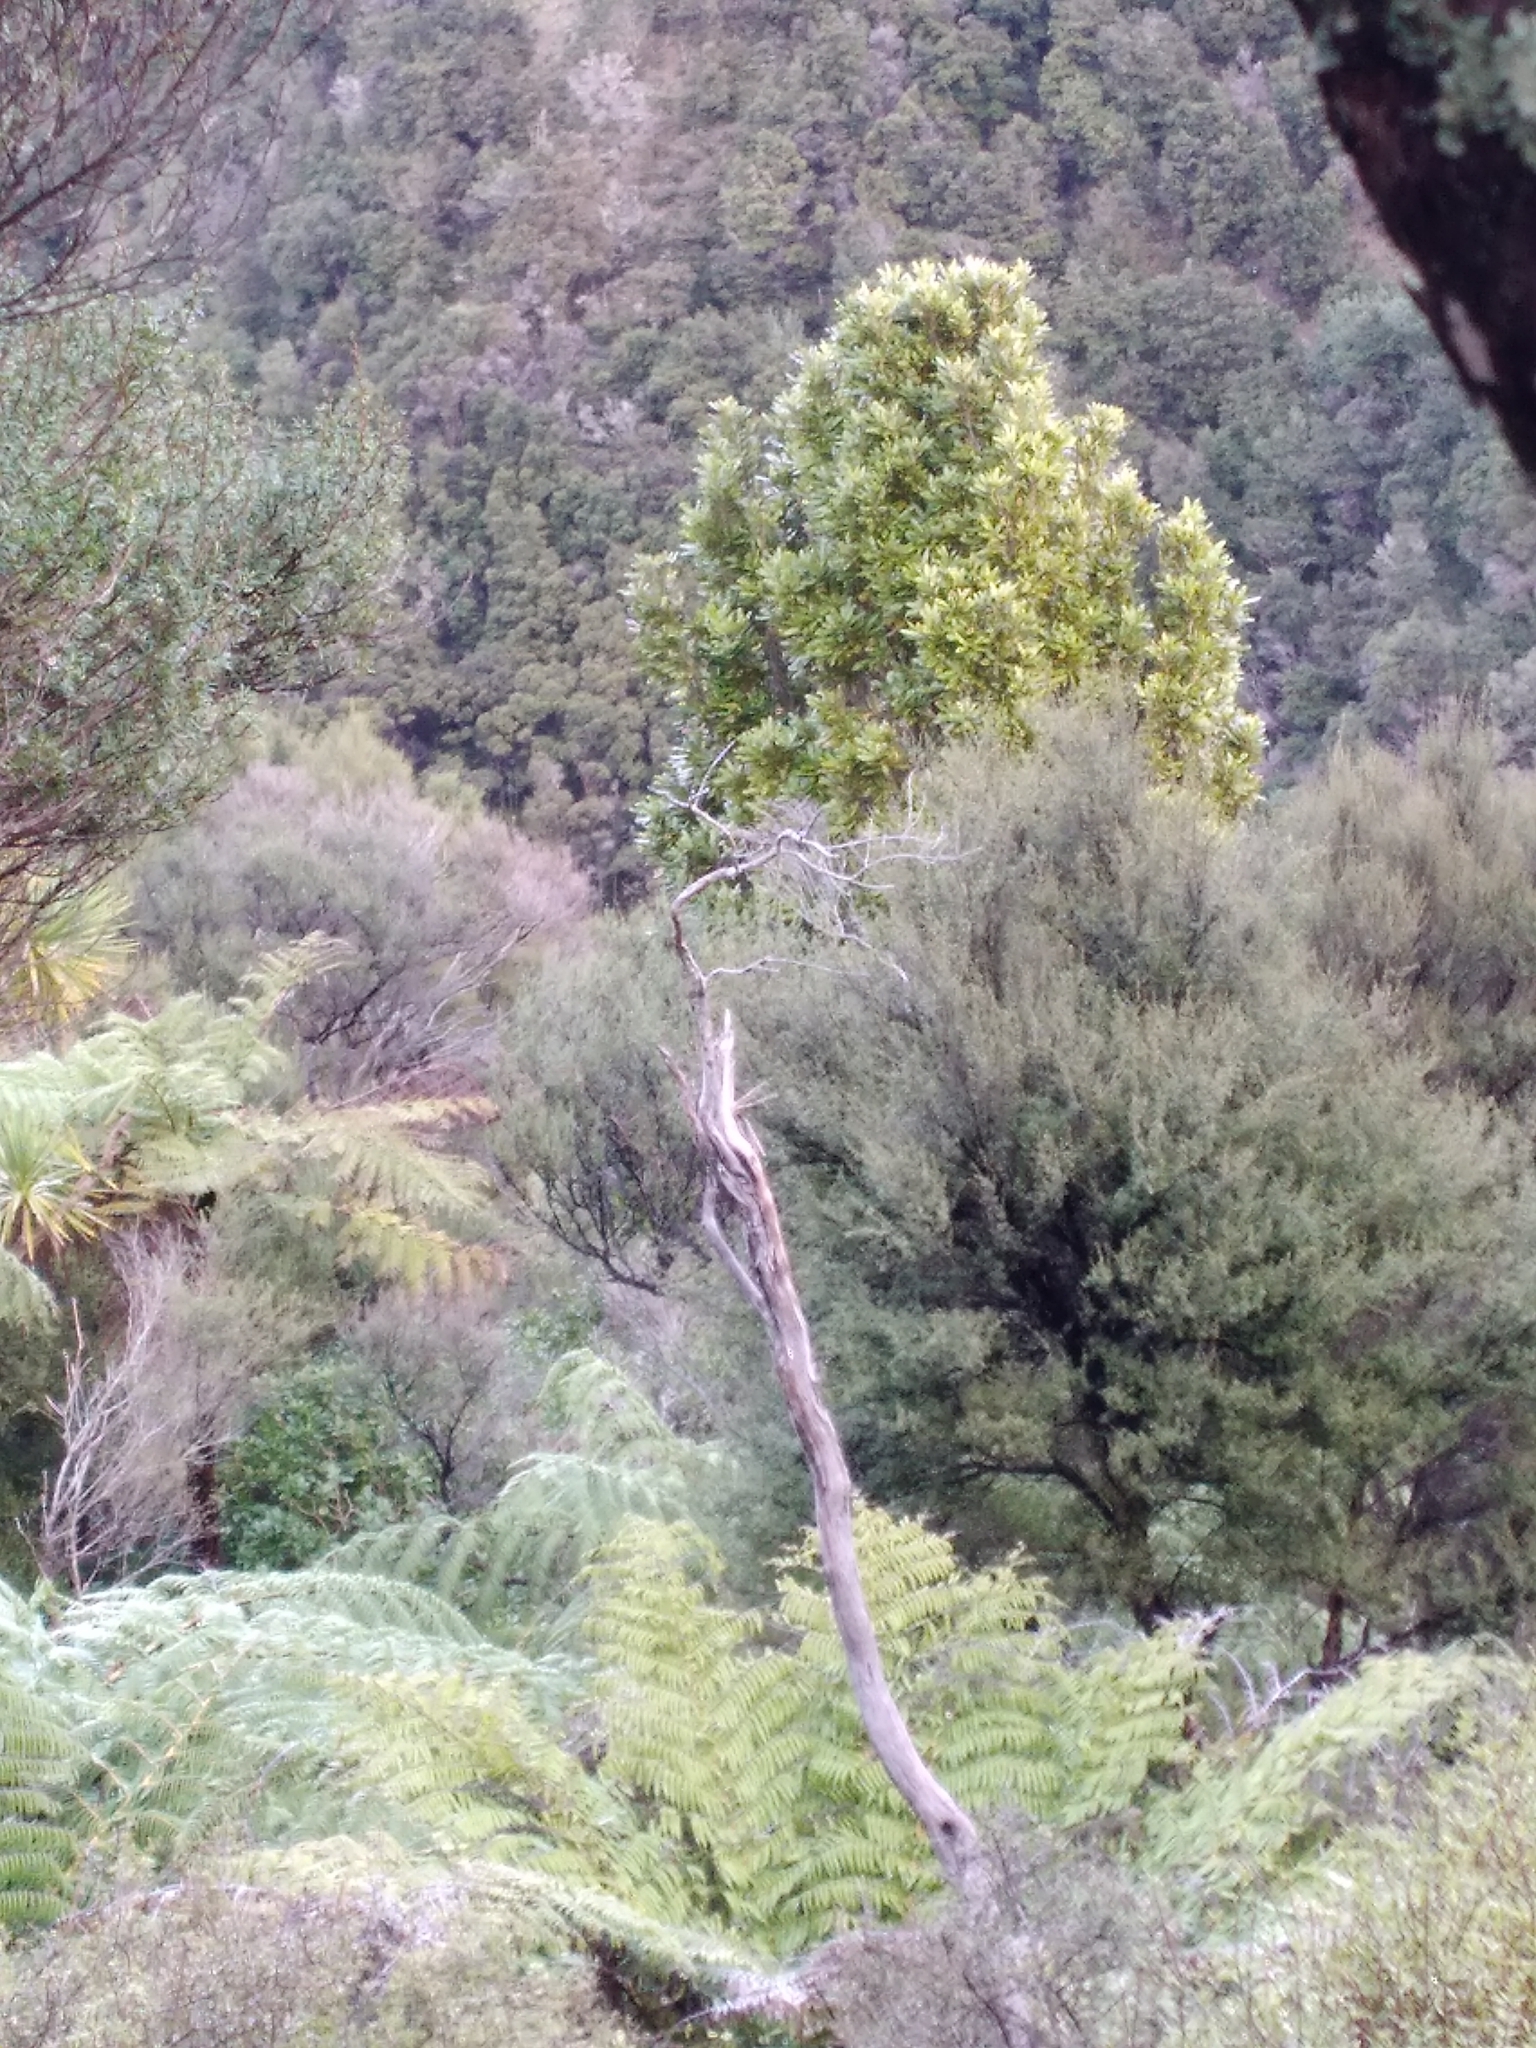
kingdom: Plantae
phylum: Tracheophyta
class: Magnoliopsida
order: Proteales
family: Proteaceae
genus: Knightia
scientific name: Knightia excelsa
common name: New zealand-honeysuckle
